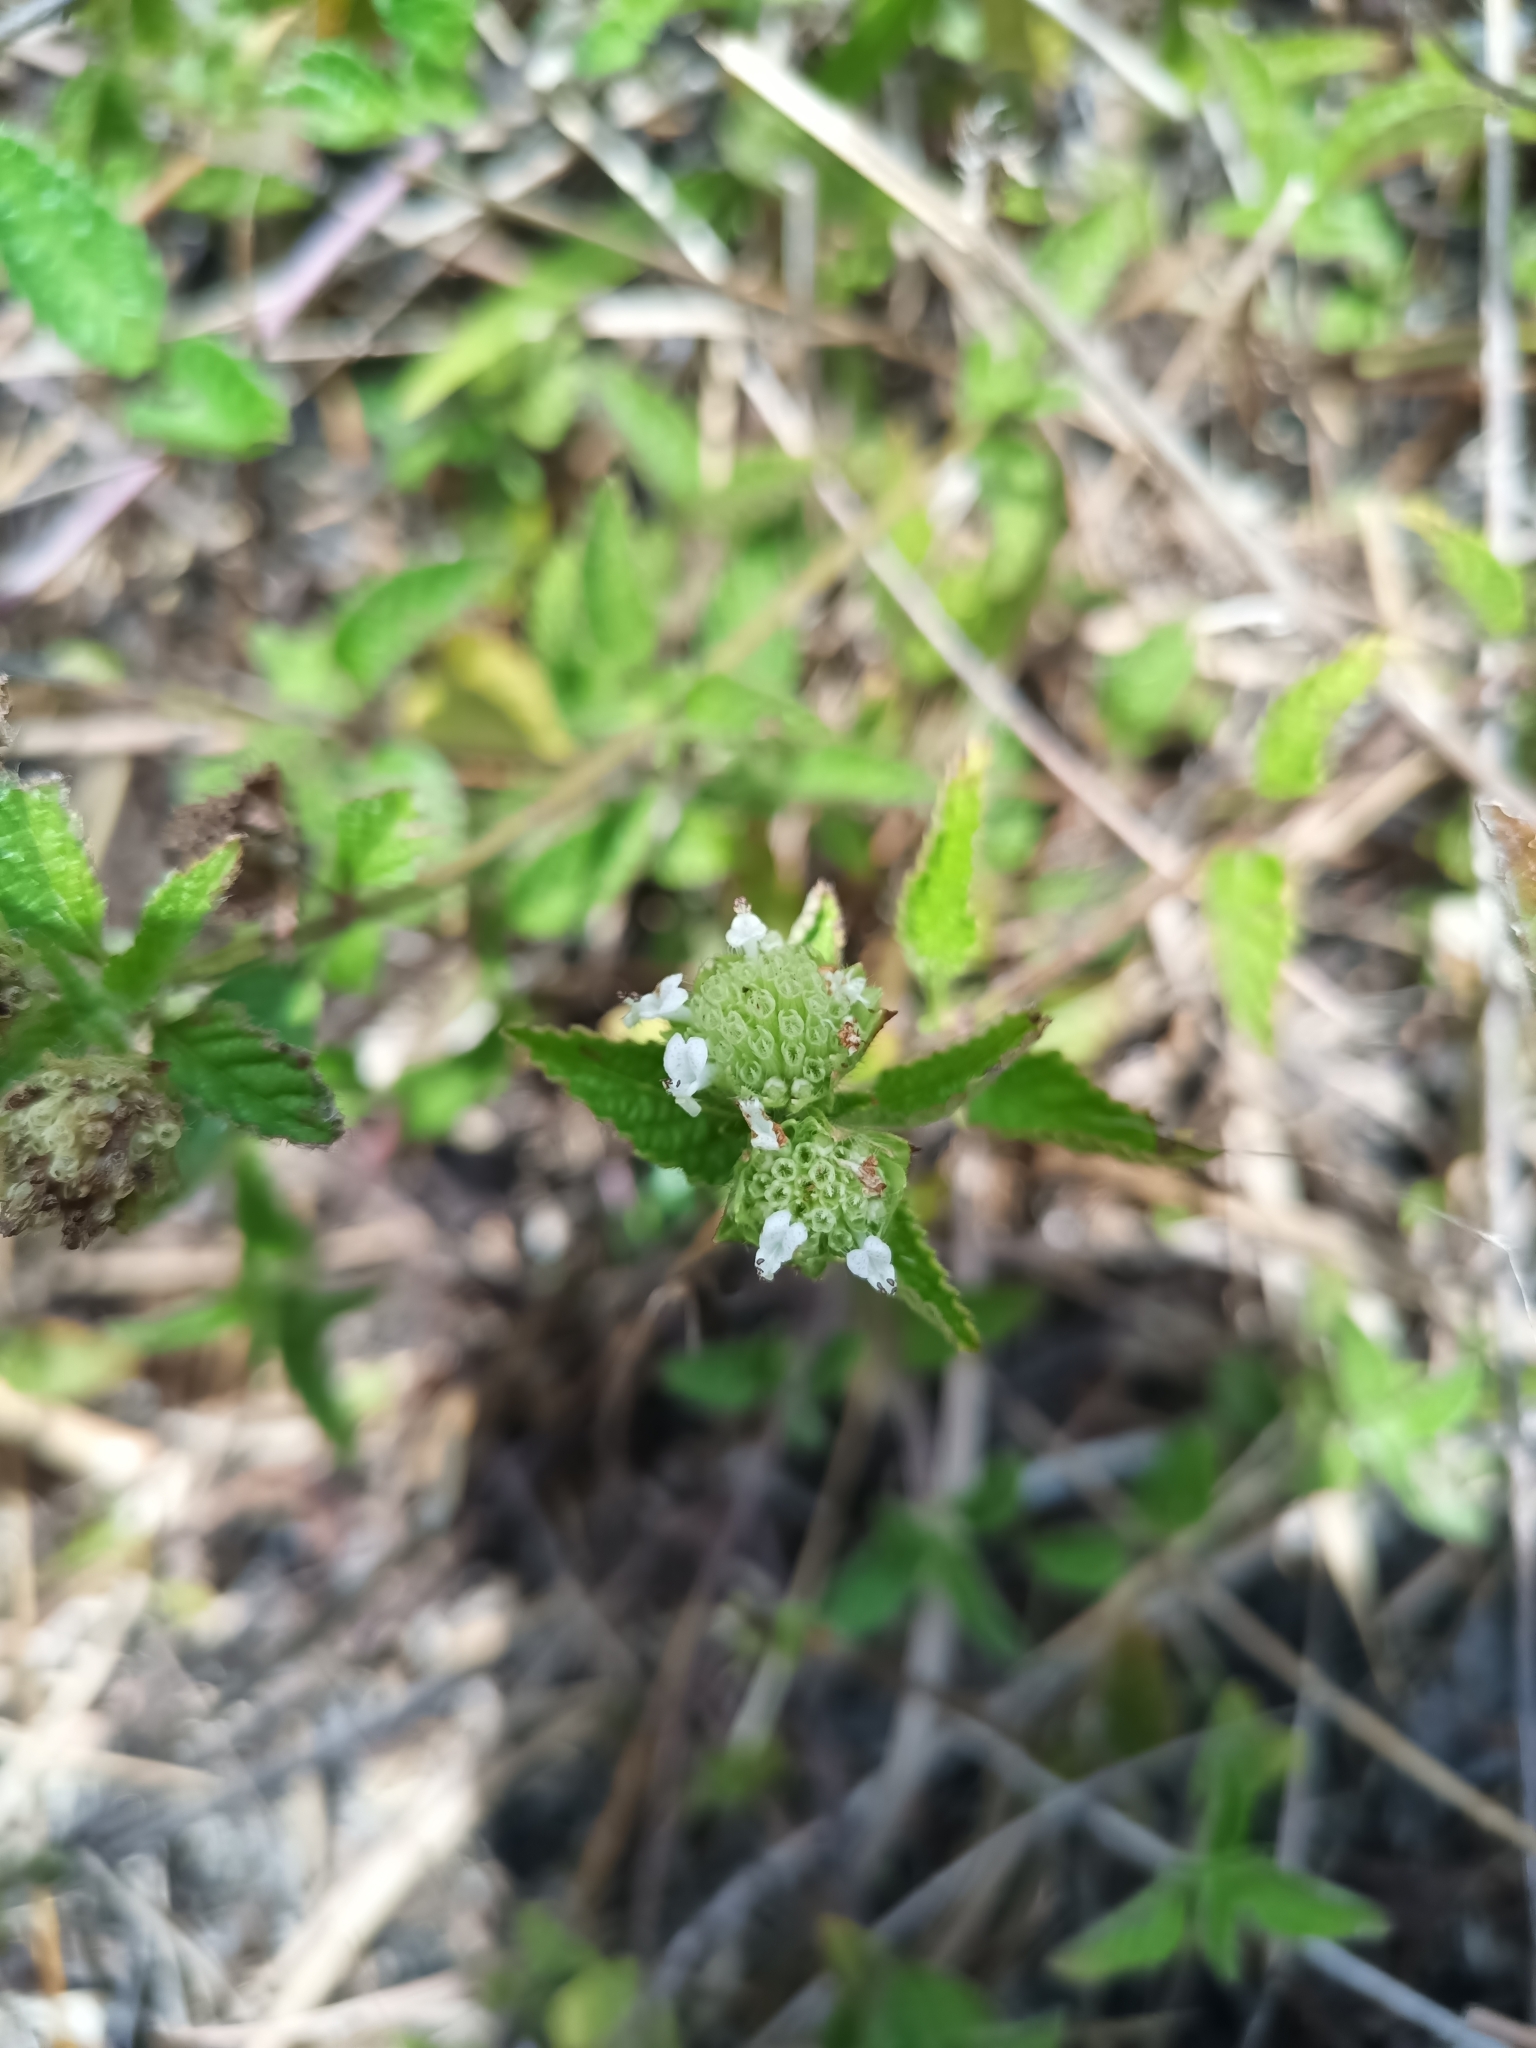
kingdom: Plantae
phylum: Tracheophyta
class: Magnoliopsida
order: Lamiales
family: Lamiaceae
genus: Hyptis
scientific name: Hyptis atrorubens
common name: Lanmant
